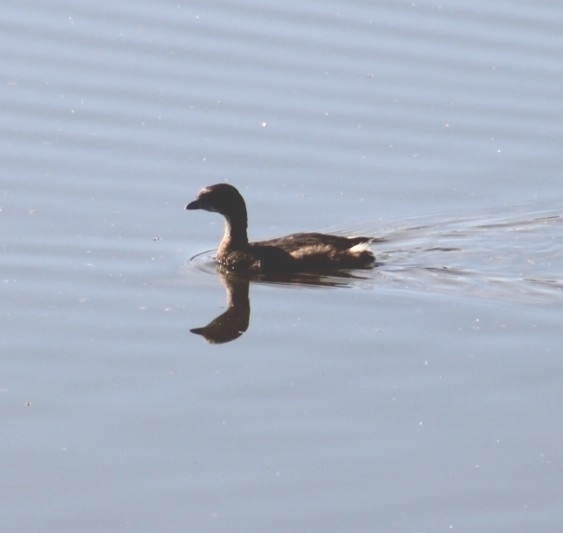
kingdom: Animalia
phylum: Chordata
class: Aves
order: Podicipediformes
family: Podicipedidae
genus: Podilymbus
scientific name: Podilymbus podiceps
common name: Pied-billed grebe
